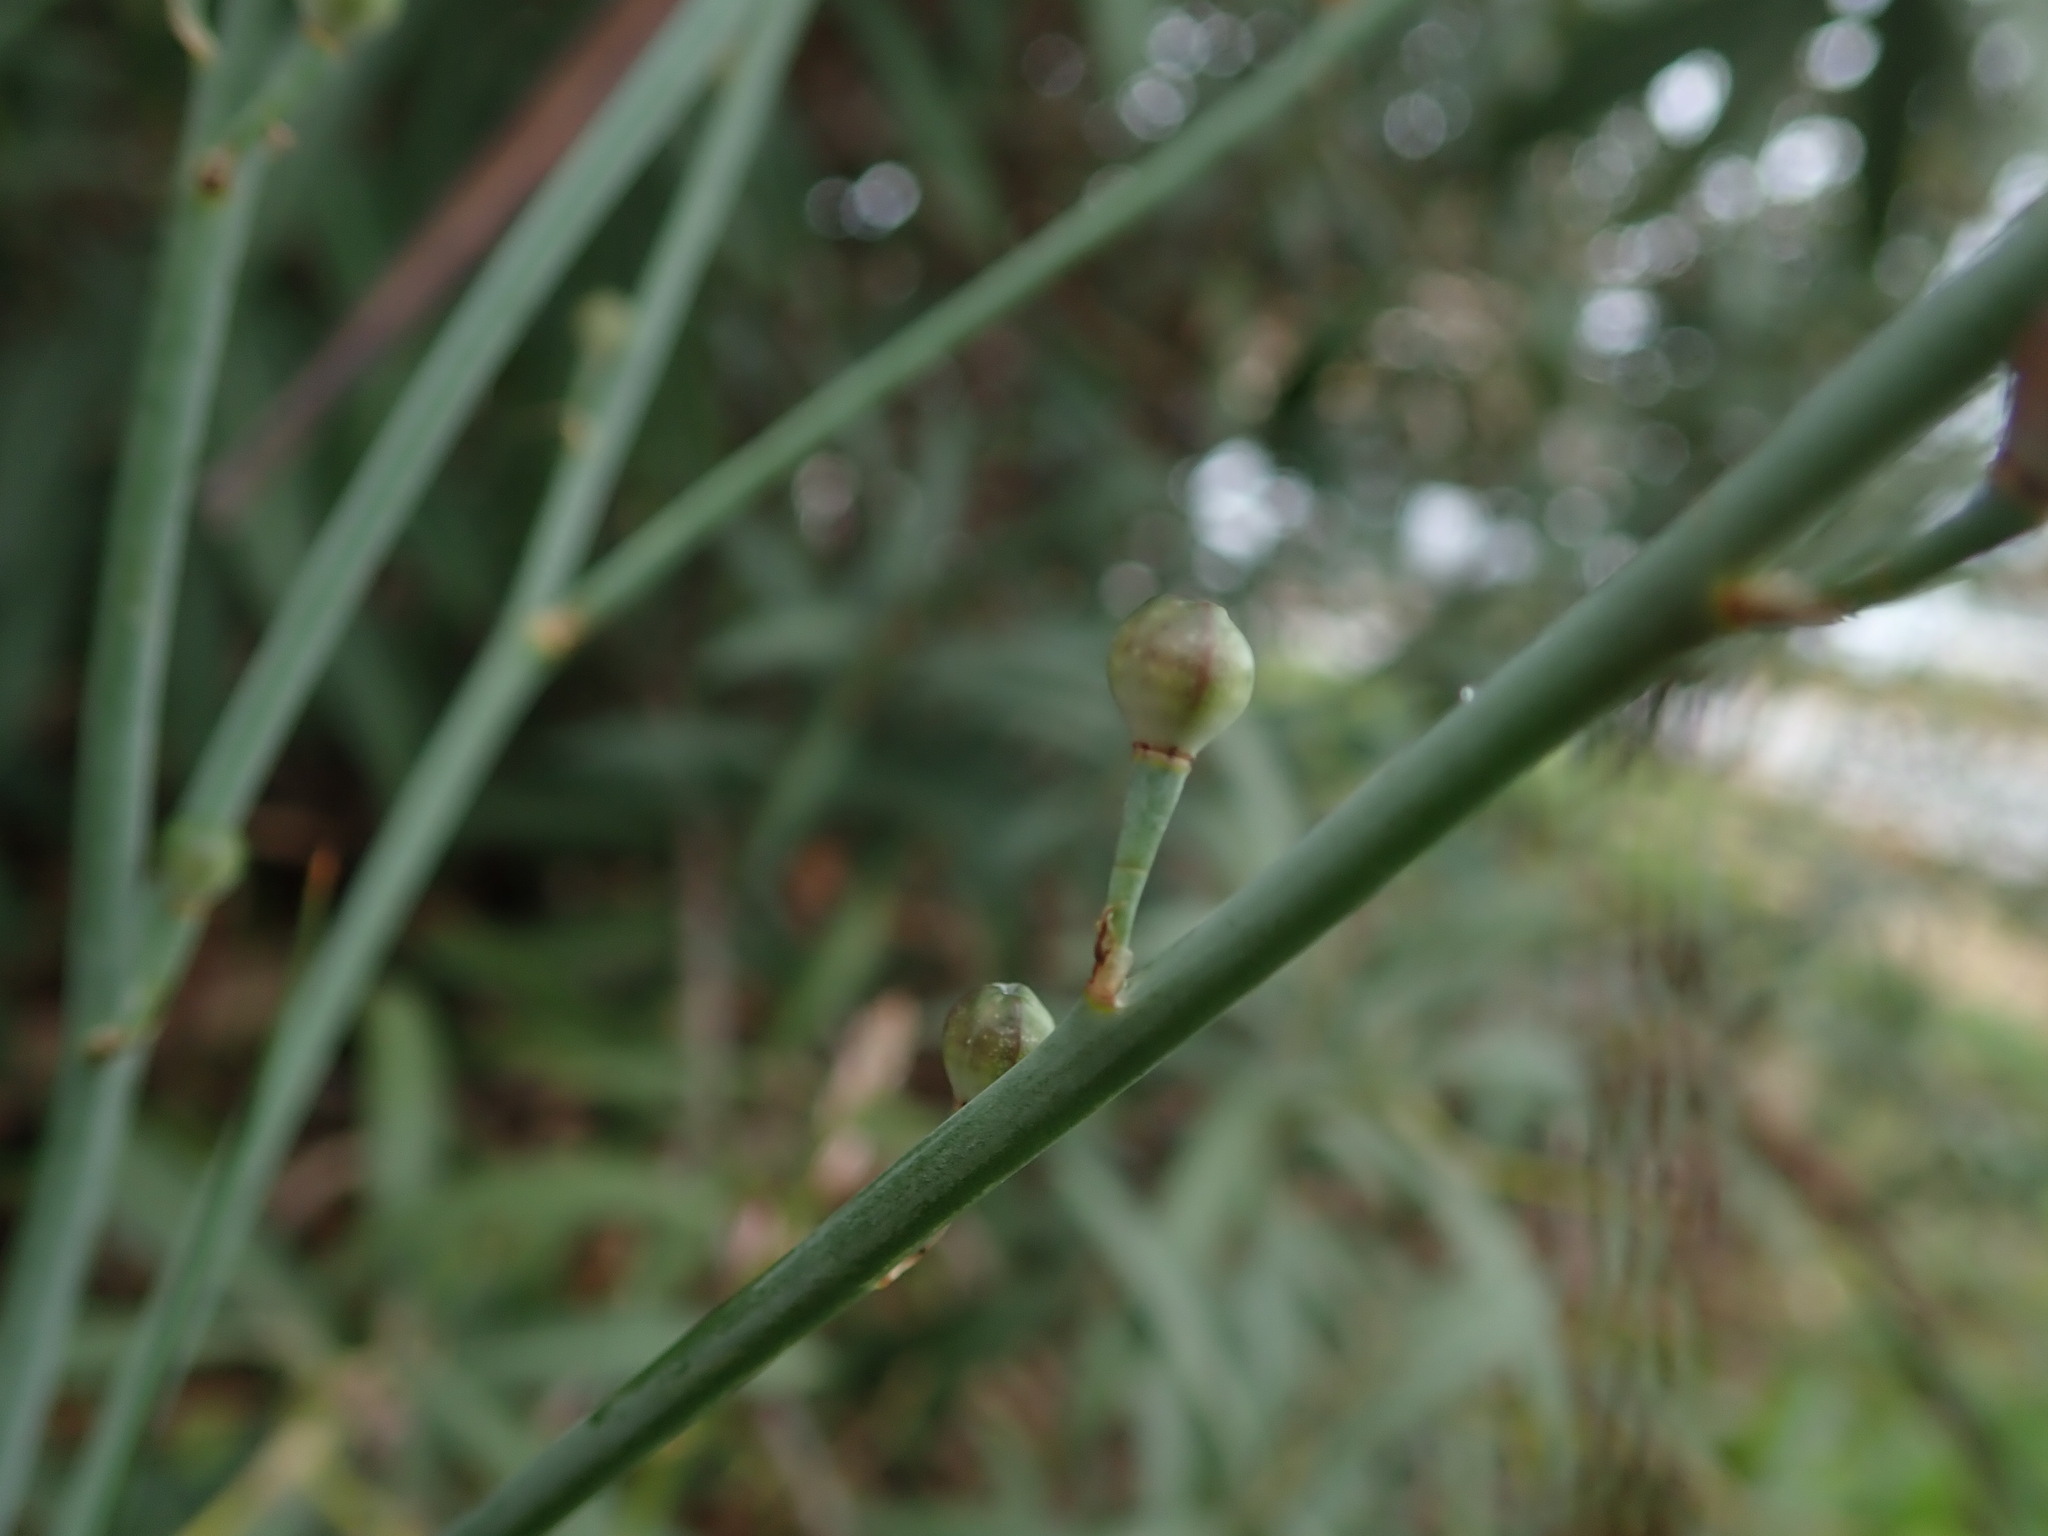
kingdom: Plantae
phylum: Tracheophyta
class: Liliopsida
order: Asparagales
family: Asphodelaceae
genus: Asphodelus
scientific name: Asphodelus fistulosus
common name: Onionweed
